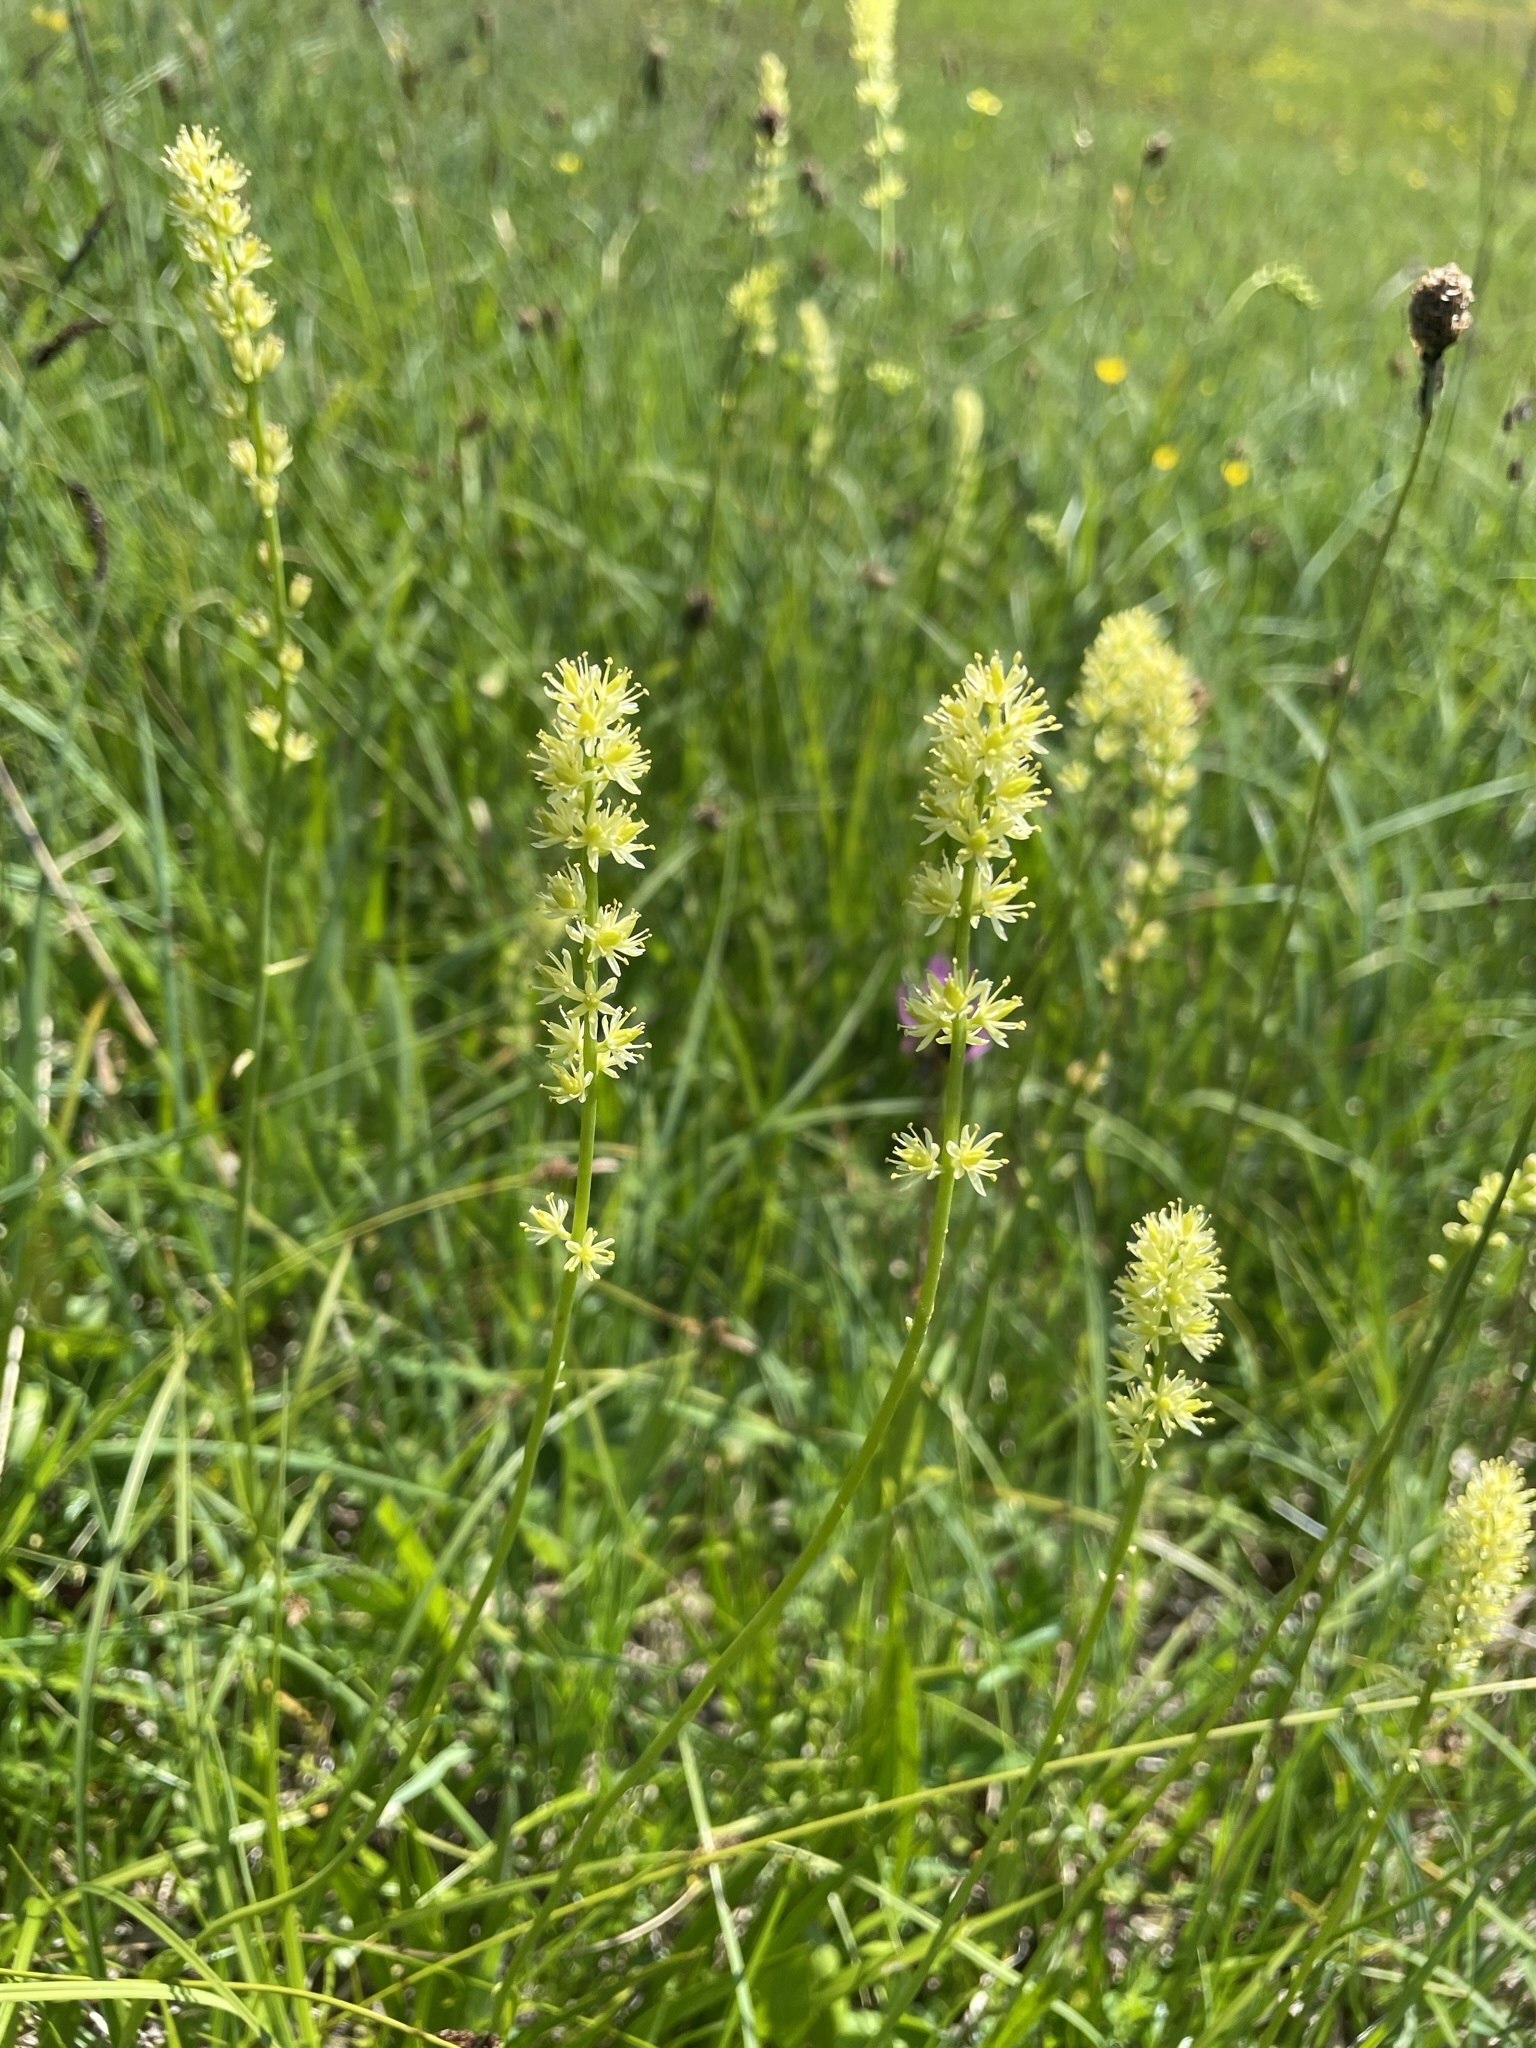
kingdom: Plantae
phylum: Tracheophyta
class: Liliopsida
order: Alismatales
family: Tofieldiaceae
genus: Tofieldia
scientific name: Tofieldia calyculata
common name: German-asphodel
